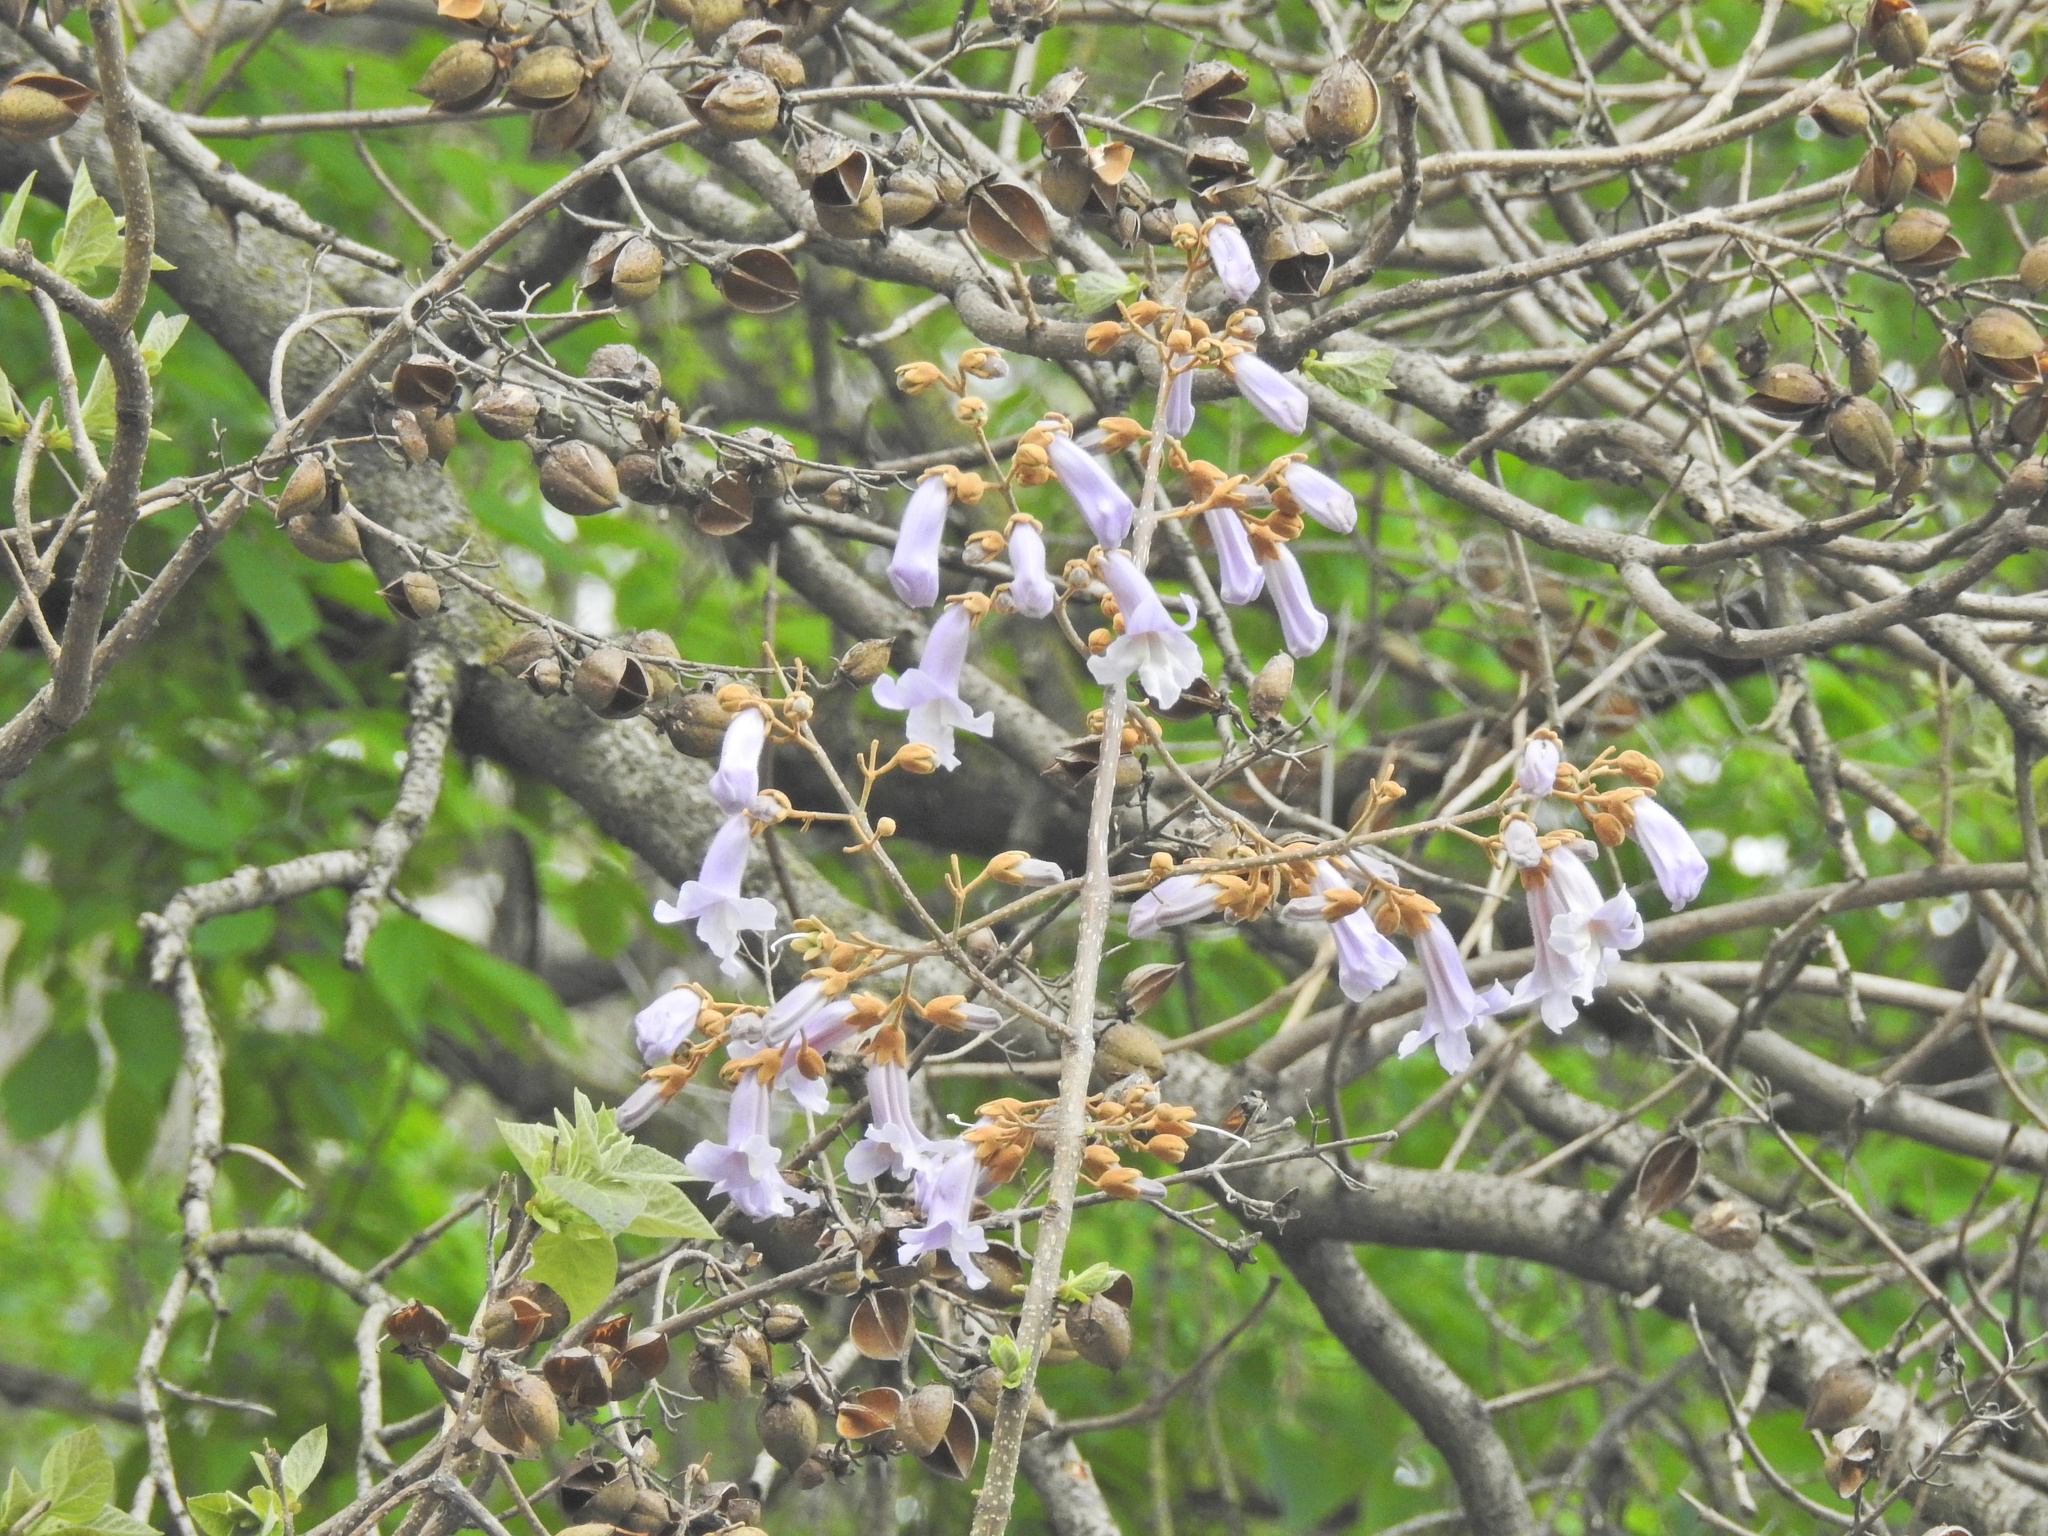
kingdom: Plantae
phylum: Tracheophyta
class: Magnoliopsida
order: Lamiales
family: Paulowniaceae
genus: Paulownia
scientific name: Paulownia tomentosa
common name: Foxglove-tree
